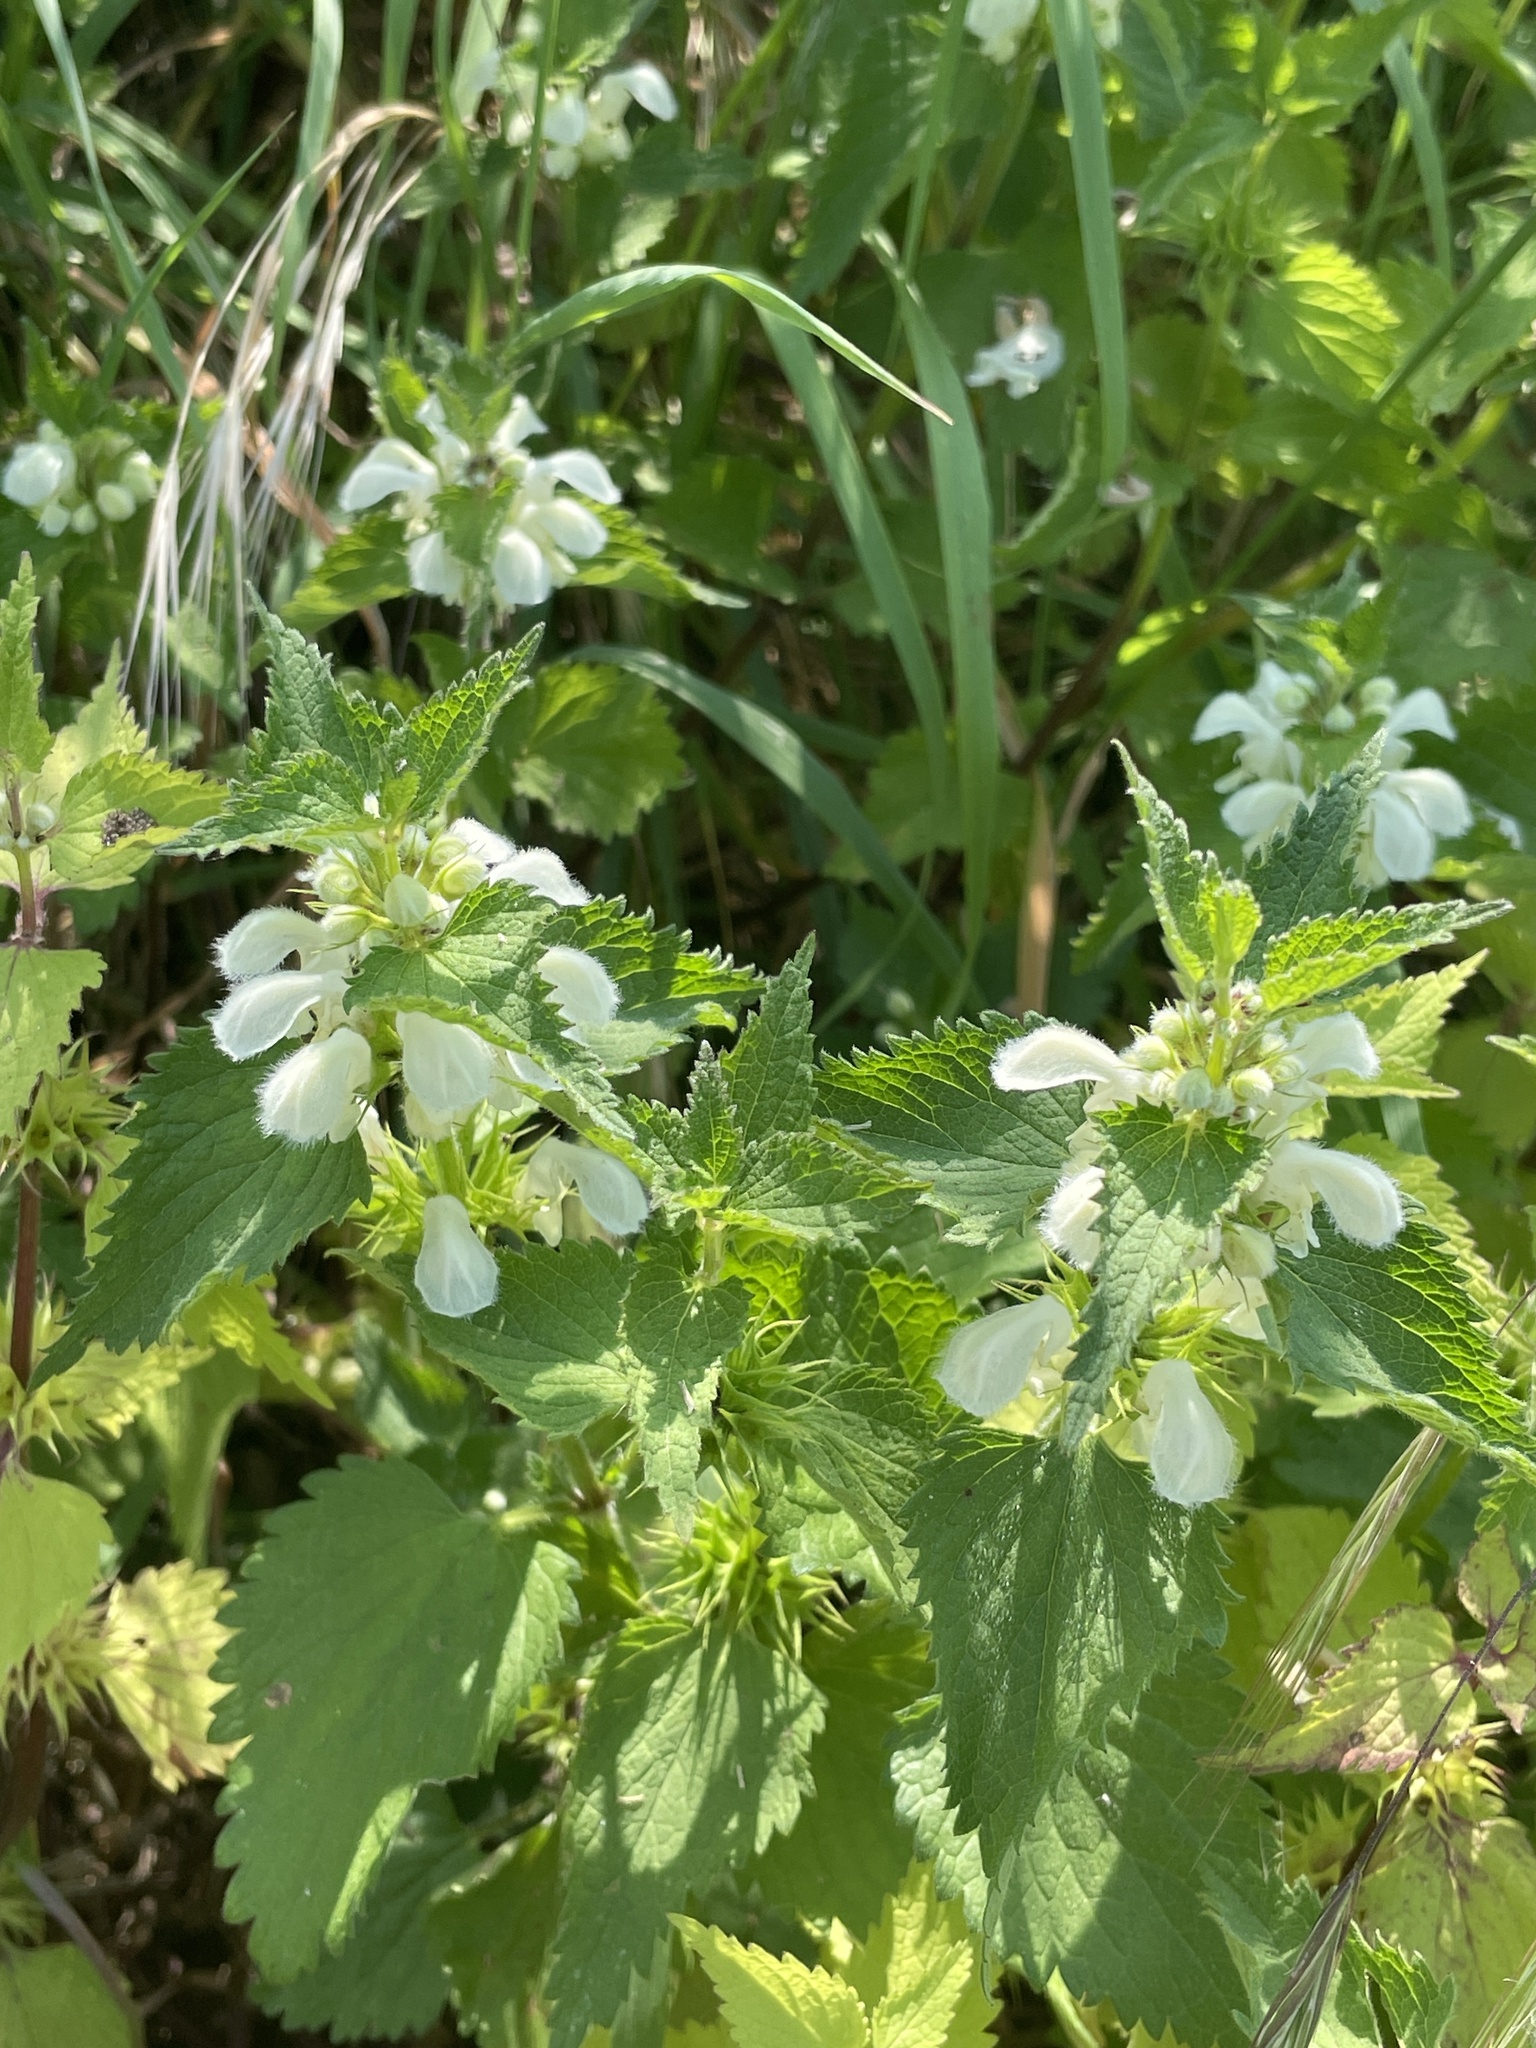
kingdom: Plantae
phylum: Tracheophyta
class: Magnoliopsida
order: Lamiales
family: Lamiaceae
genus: Lamium
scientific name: Lamium album
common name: White dead-nettle
